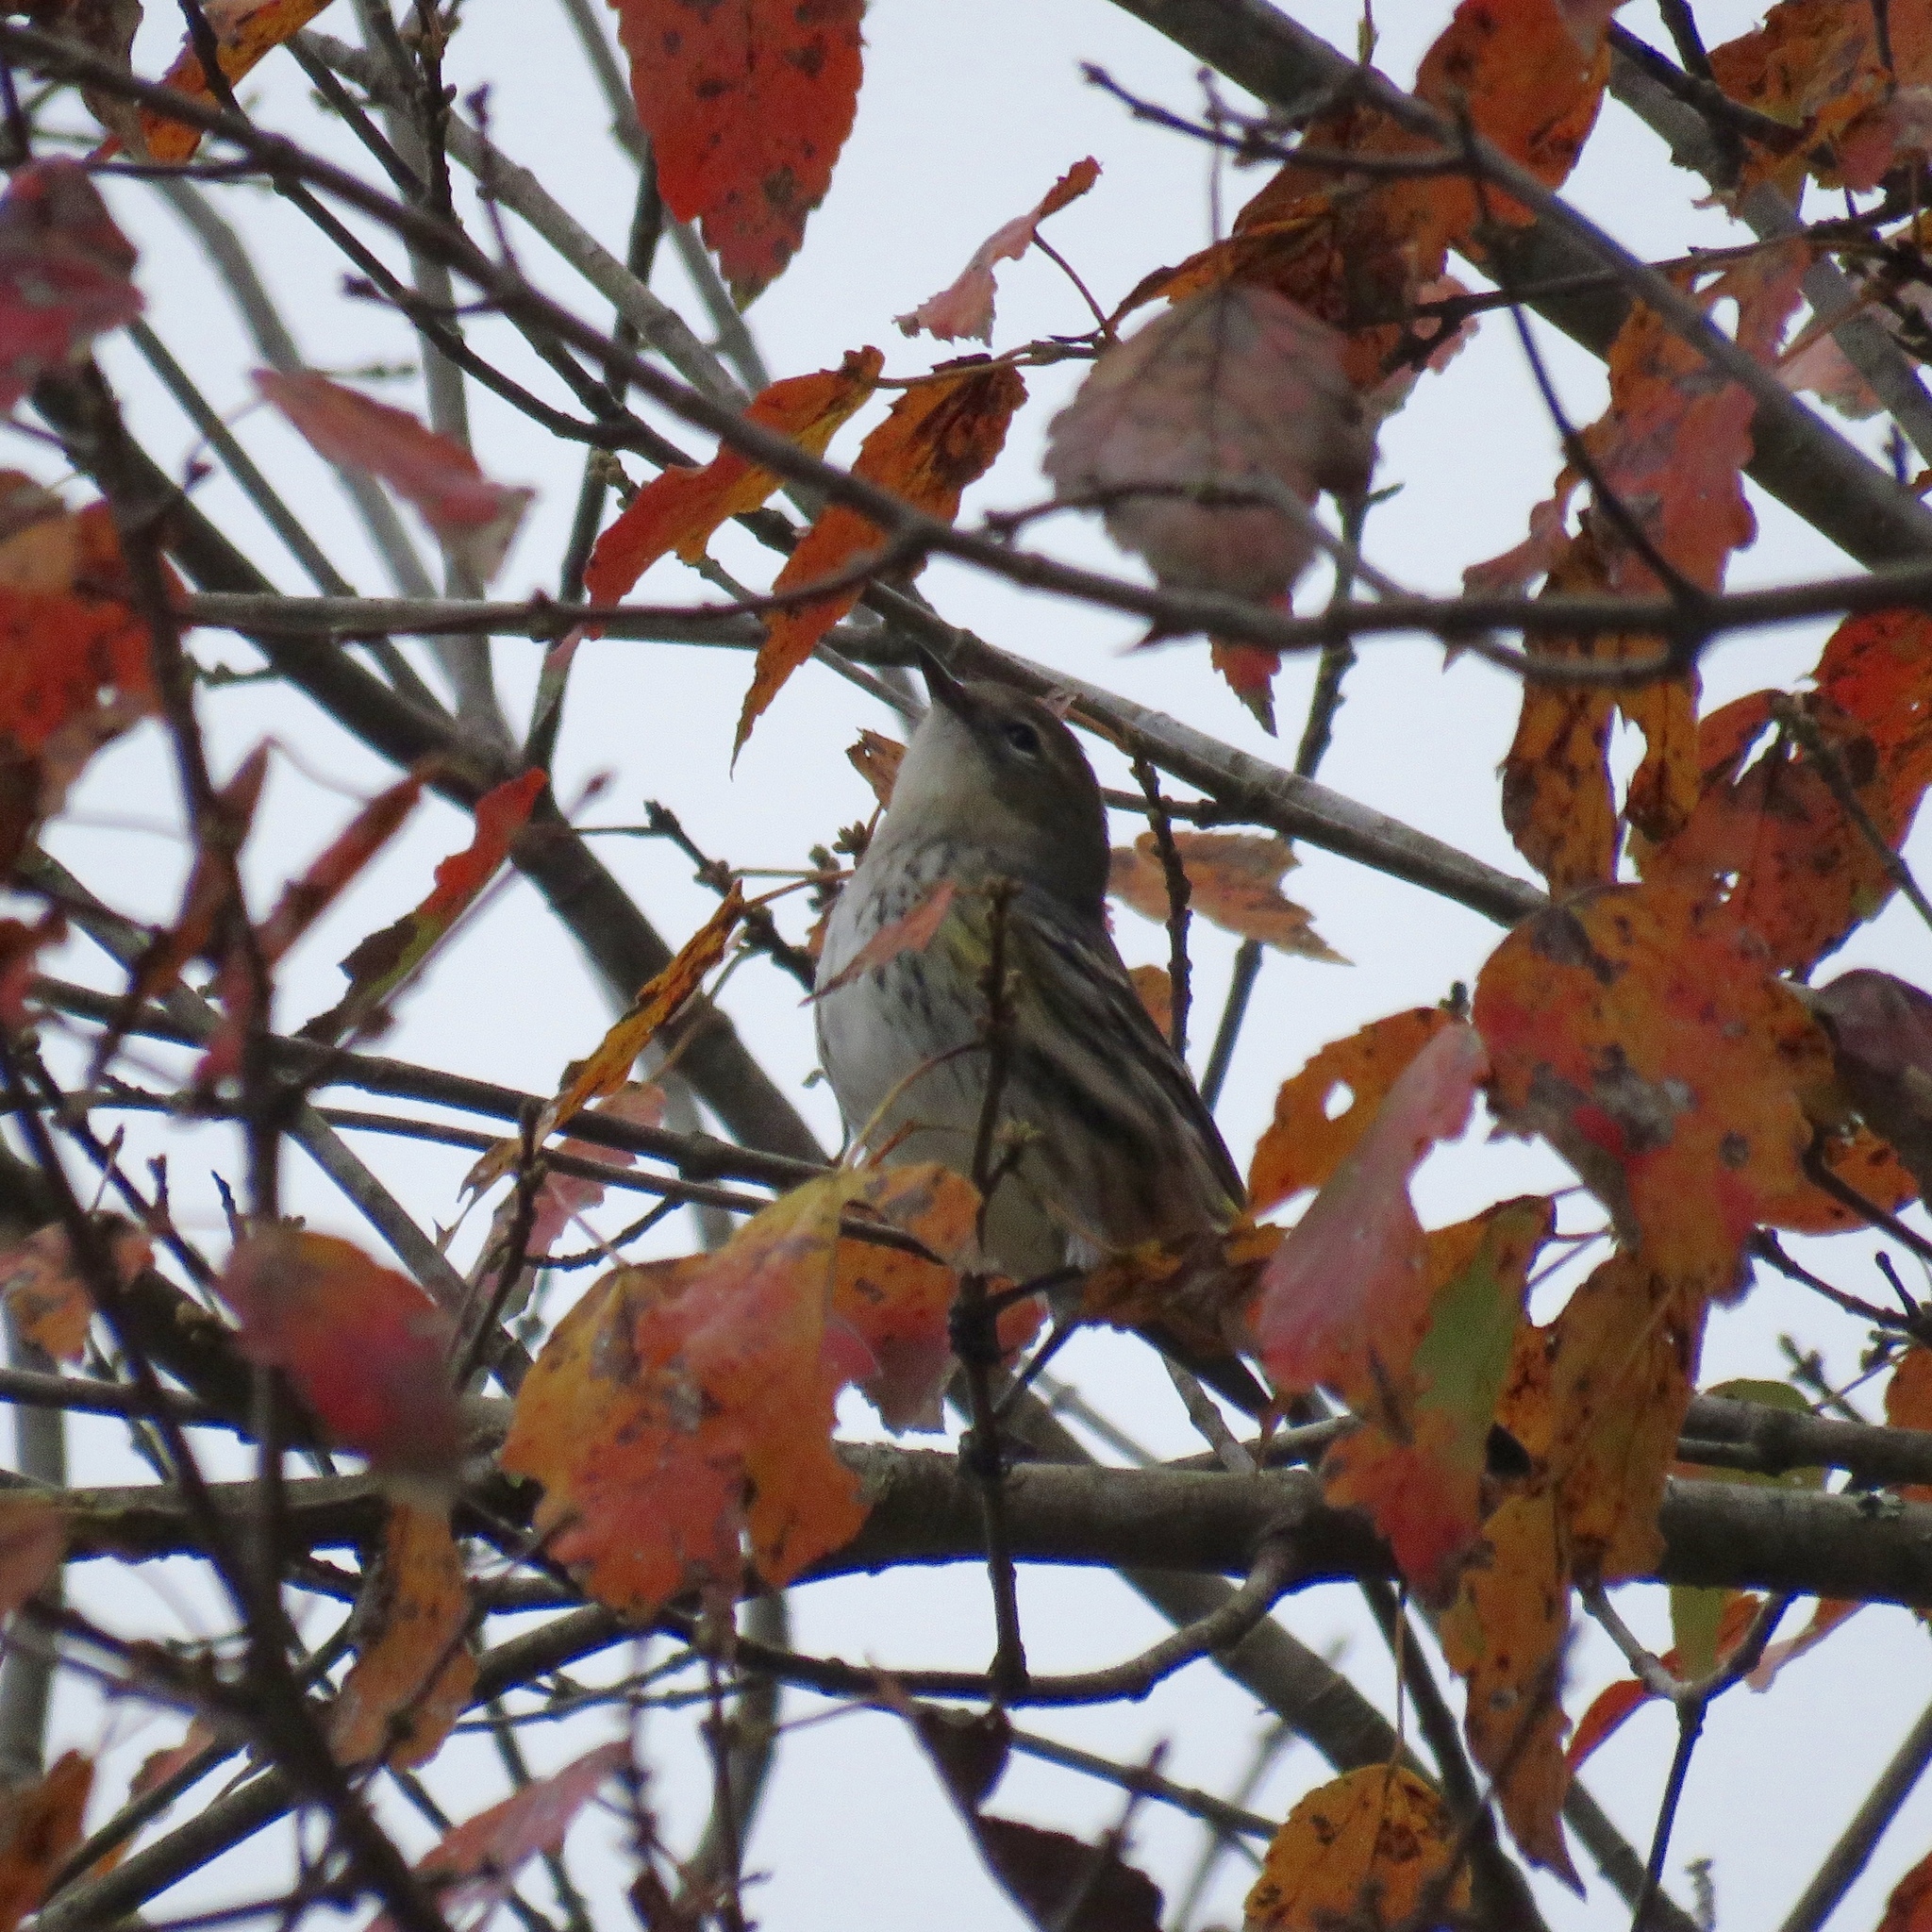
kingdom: Animalia
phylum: Chordata
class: Aves
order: Passeriformes
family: Parulidae
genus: Setophaga
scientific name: Setophaga coronata
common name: Myrtle warbler
